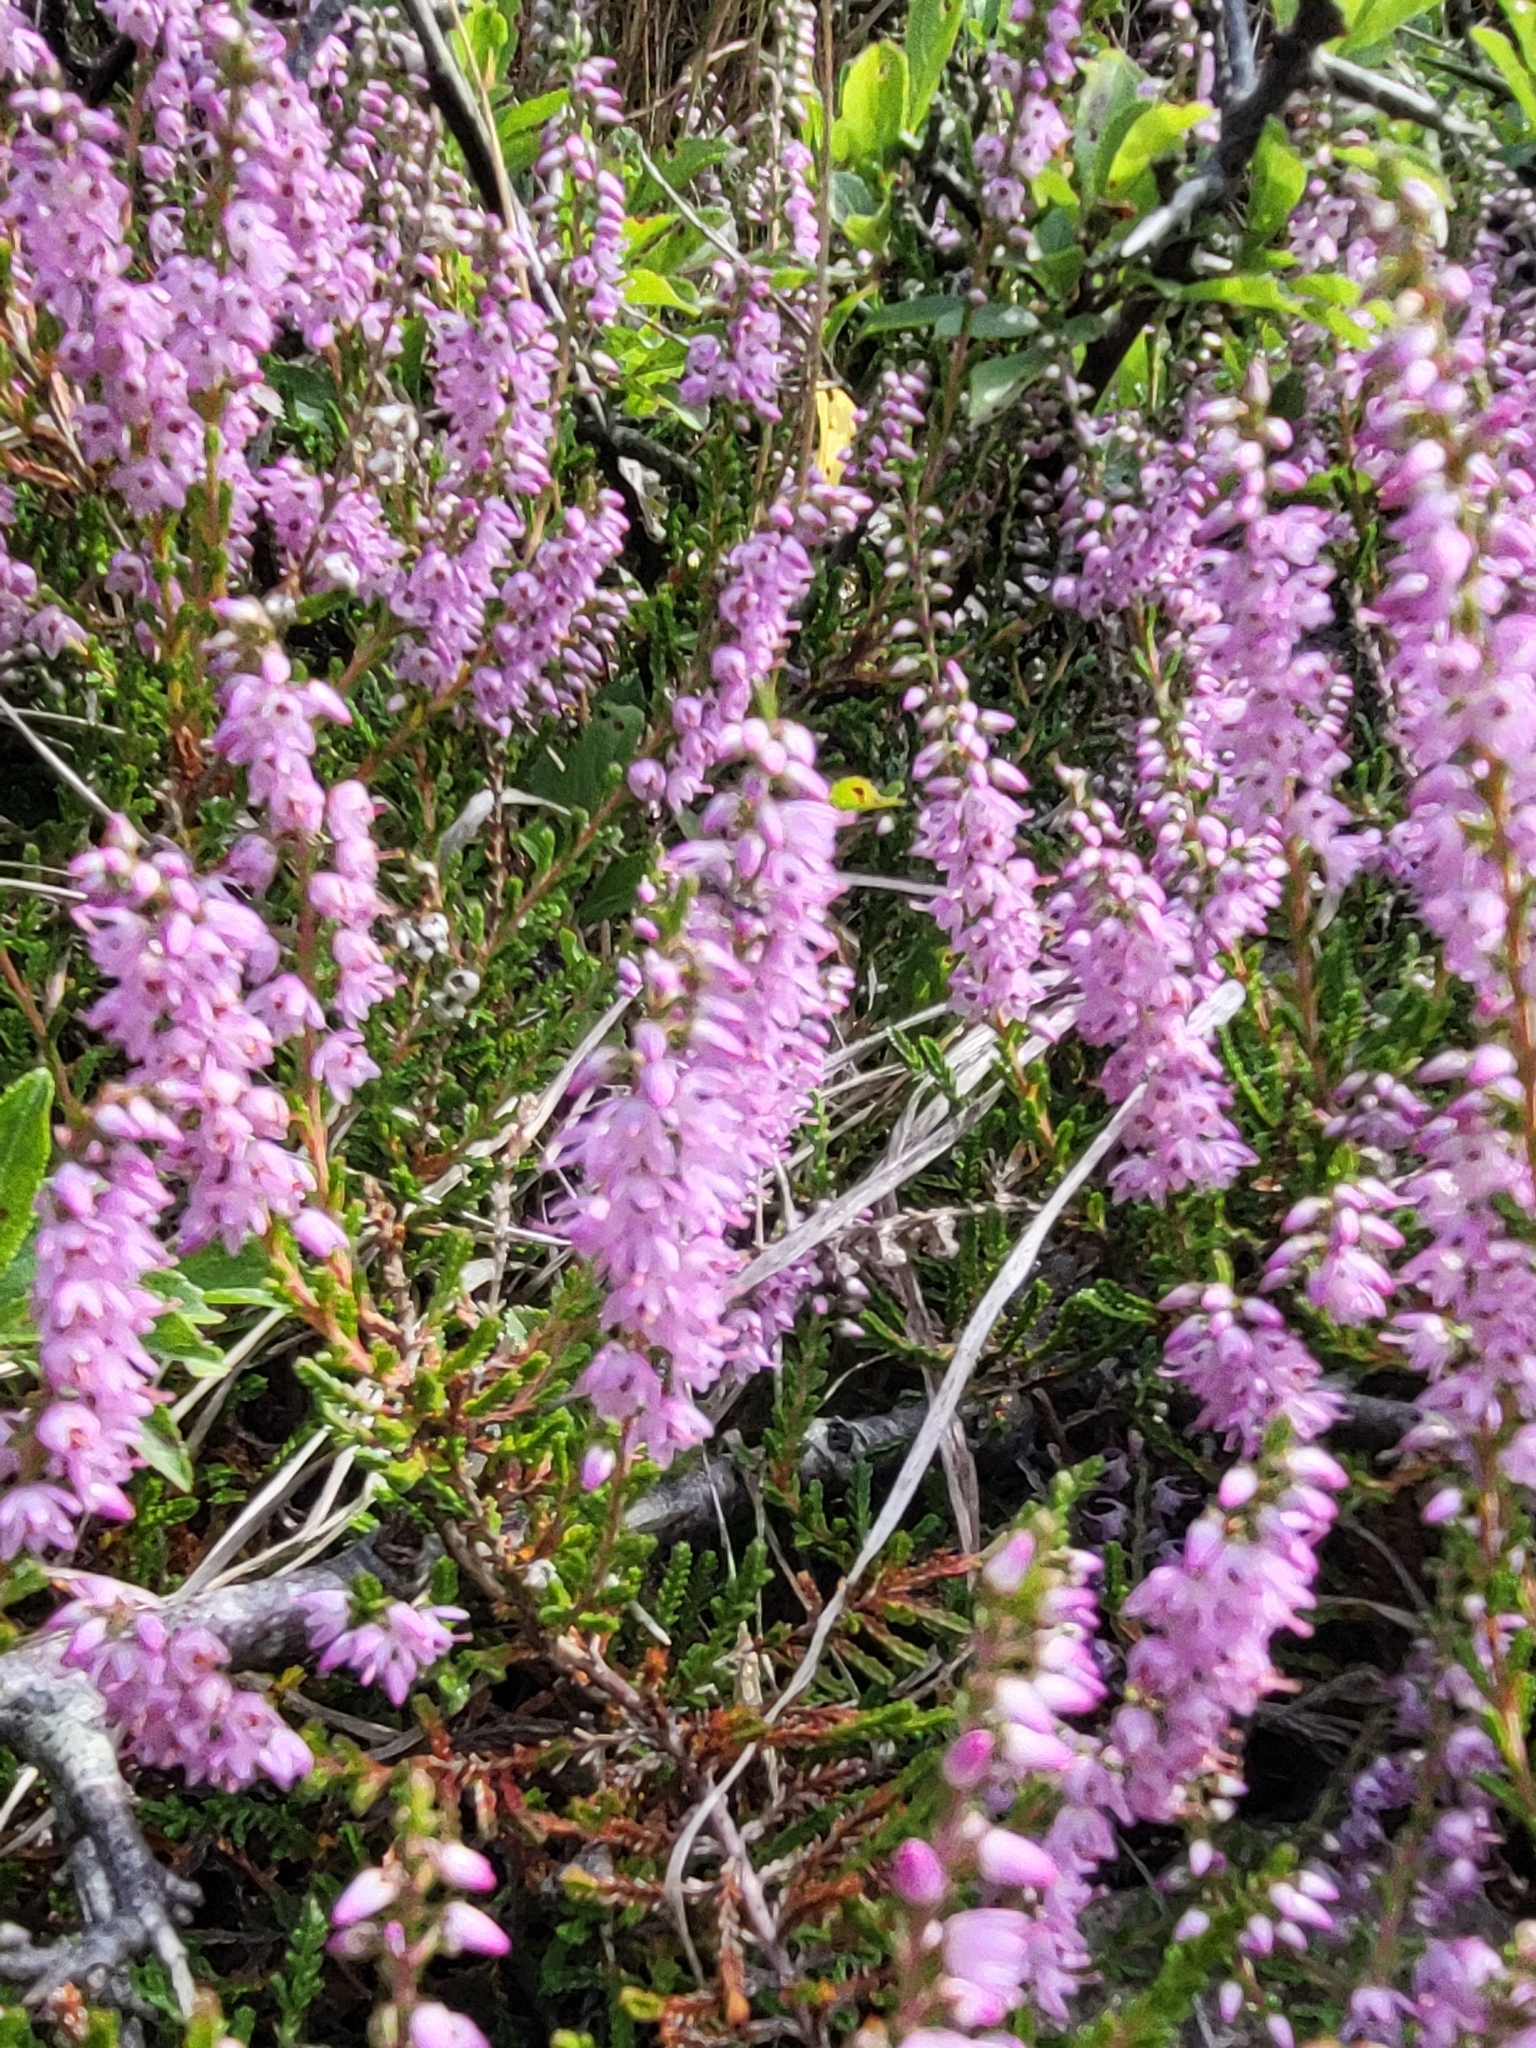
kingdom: Plantae
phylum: Tracheophyta
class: Magnoliopsida
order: Ericales
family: Ericaceae
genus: Calluna
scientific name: Calluna vulgaris
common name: Heather
